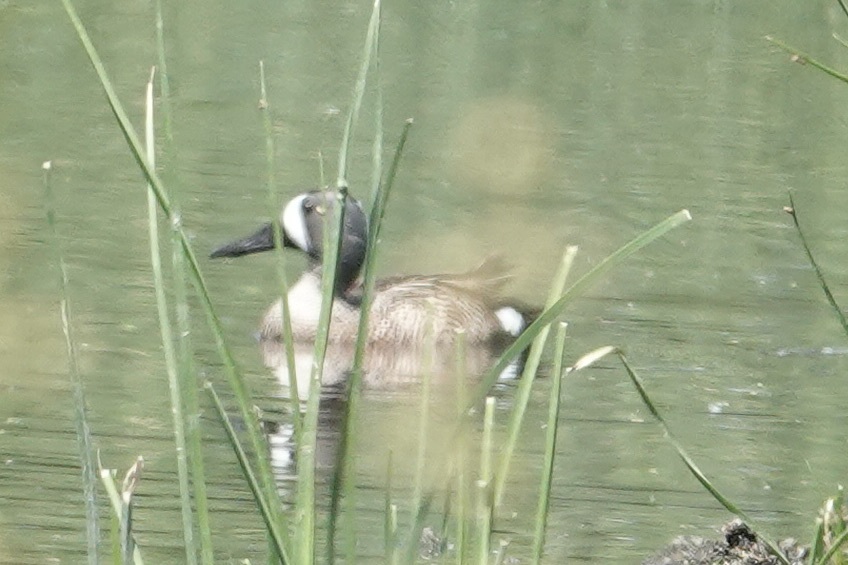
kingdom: Animalia
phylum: Chordata
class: Aves
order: Anseriformes
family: Anatidae
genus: Spatula
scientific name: Spatula discors
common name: Blue-winged teal
